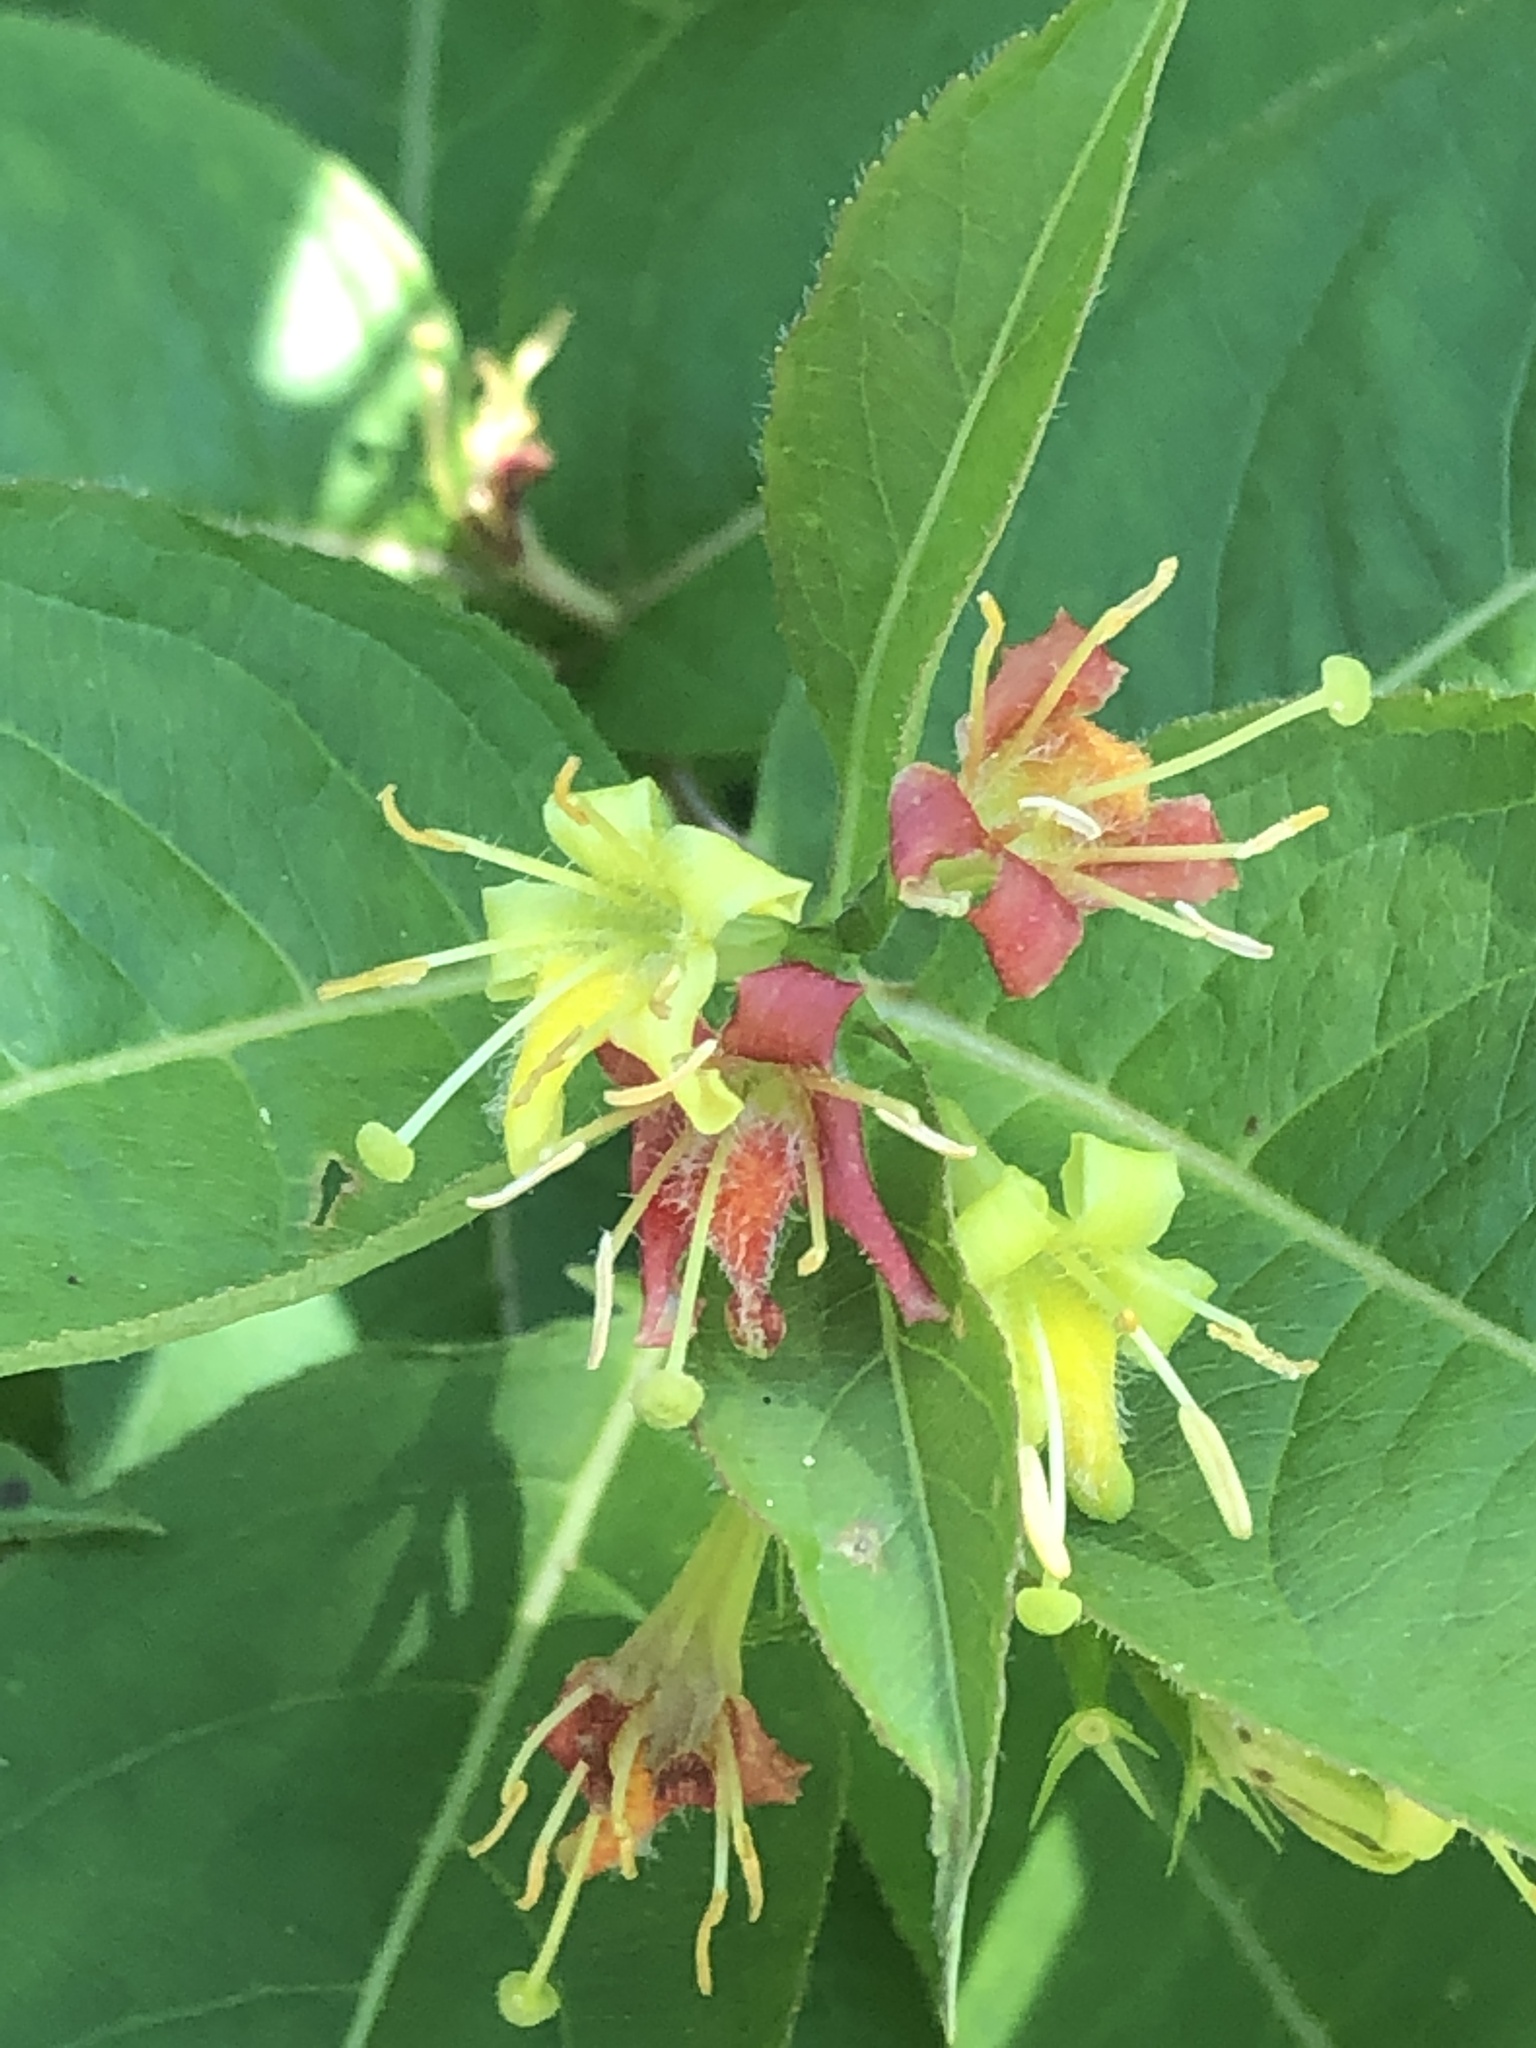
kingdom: Plantae
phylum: Tracheophyta
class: Magnoliopsida
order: Dipsacales
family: Caprifoliaceae
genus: Diervilla
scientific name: Diervilla lonicera
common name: Bush-honeysuckle
